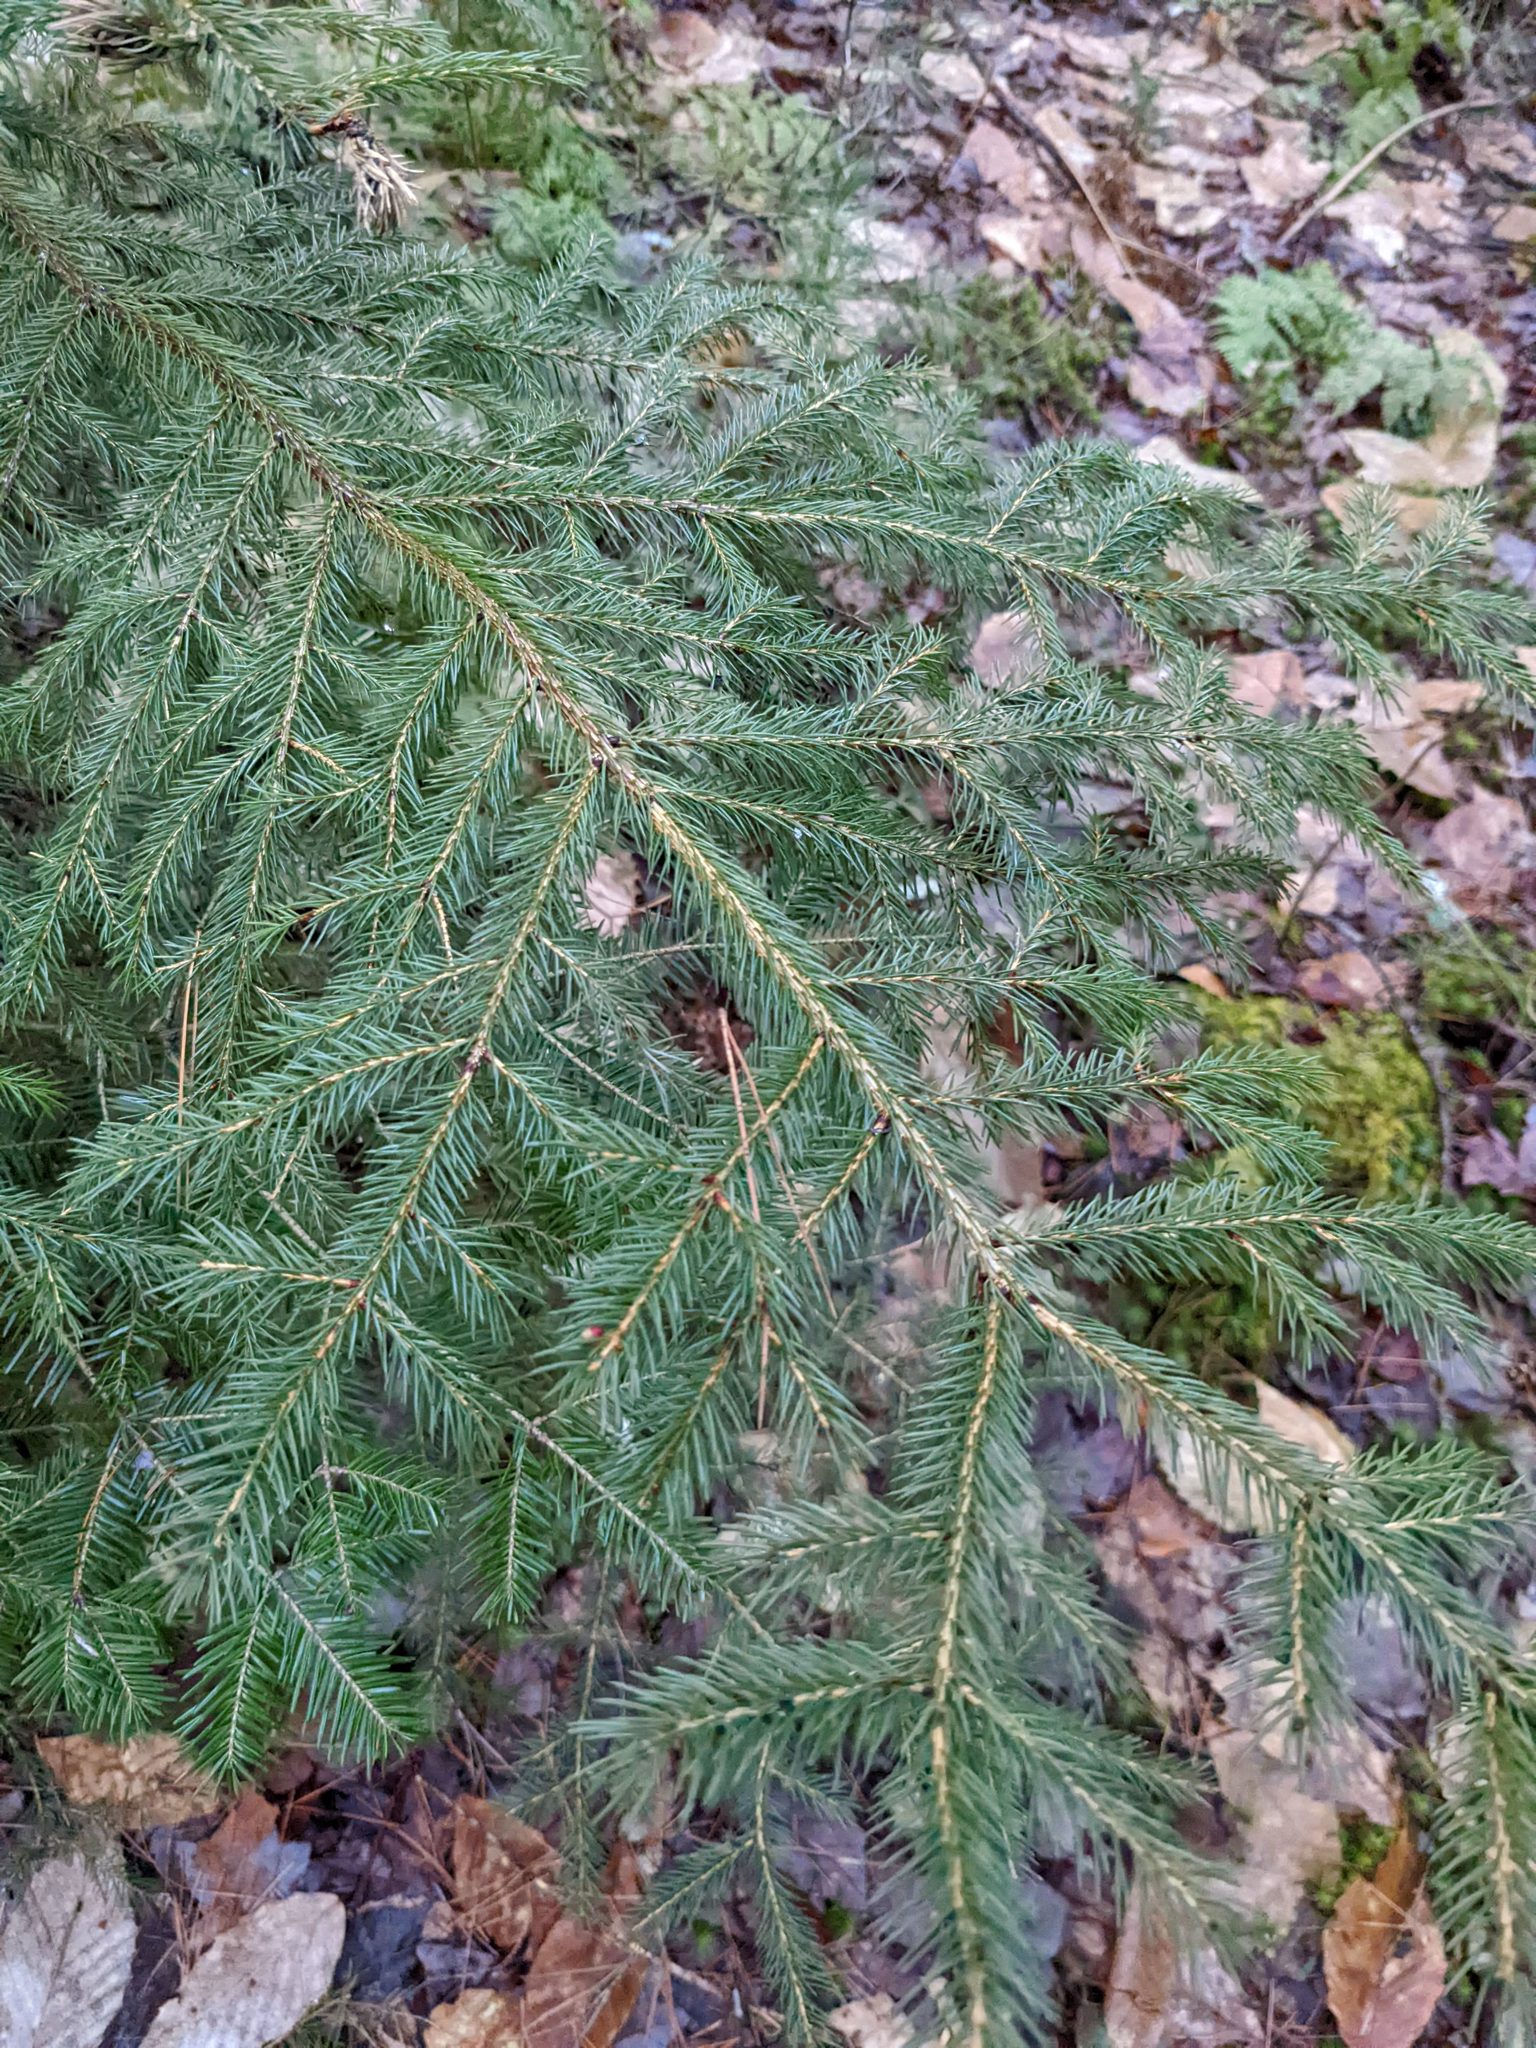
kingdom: Plantae
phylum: Tracheophyta
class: Pinopsida
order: Pinales
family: Pinaceae
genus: Picea
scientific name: Picea rubens
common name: Red spruce
